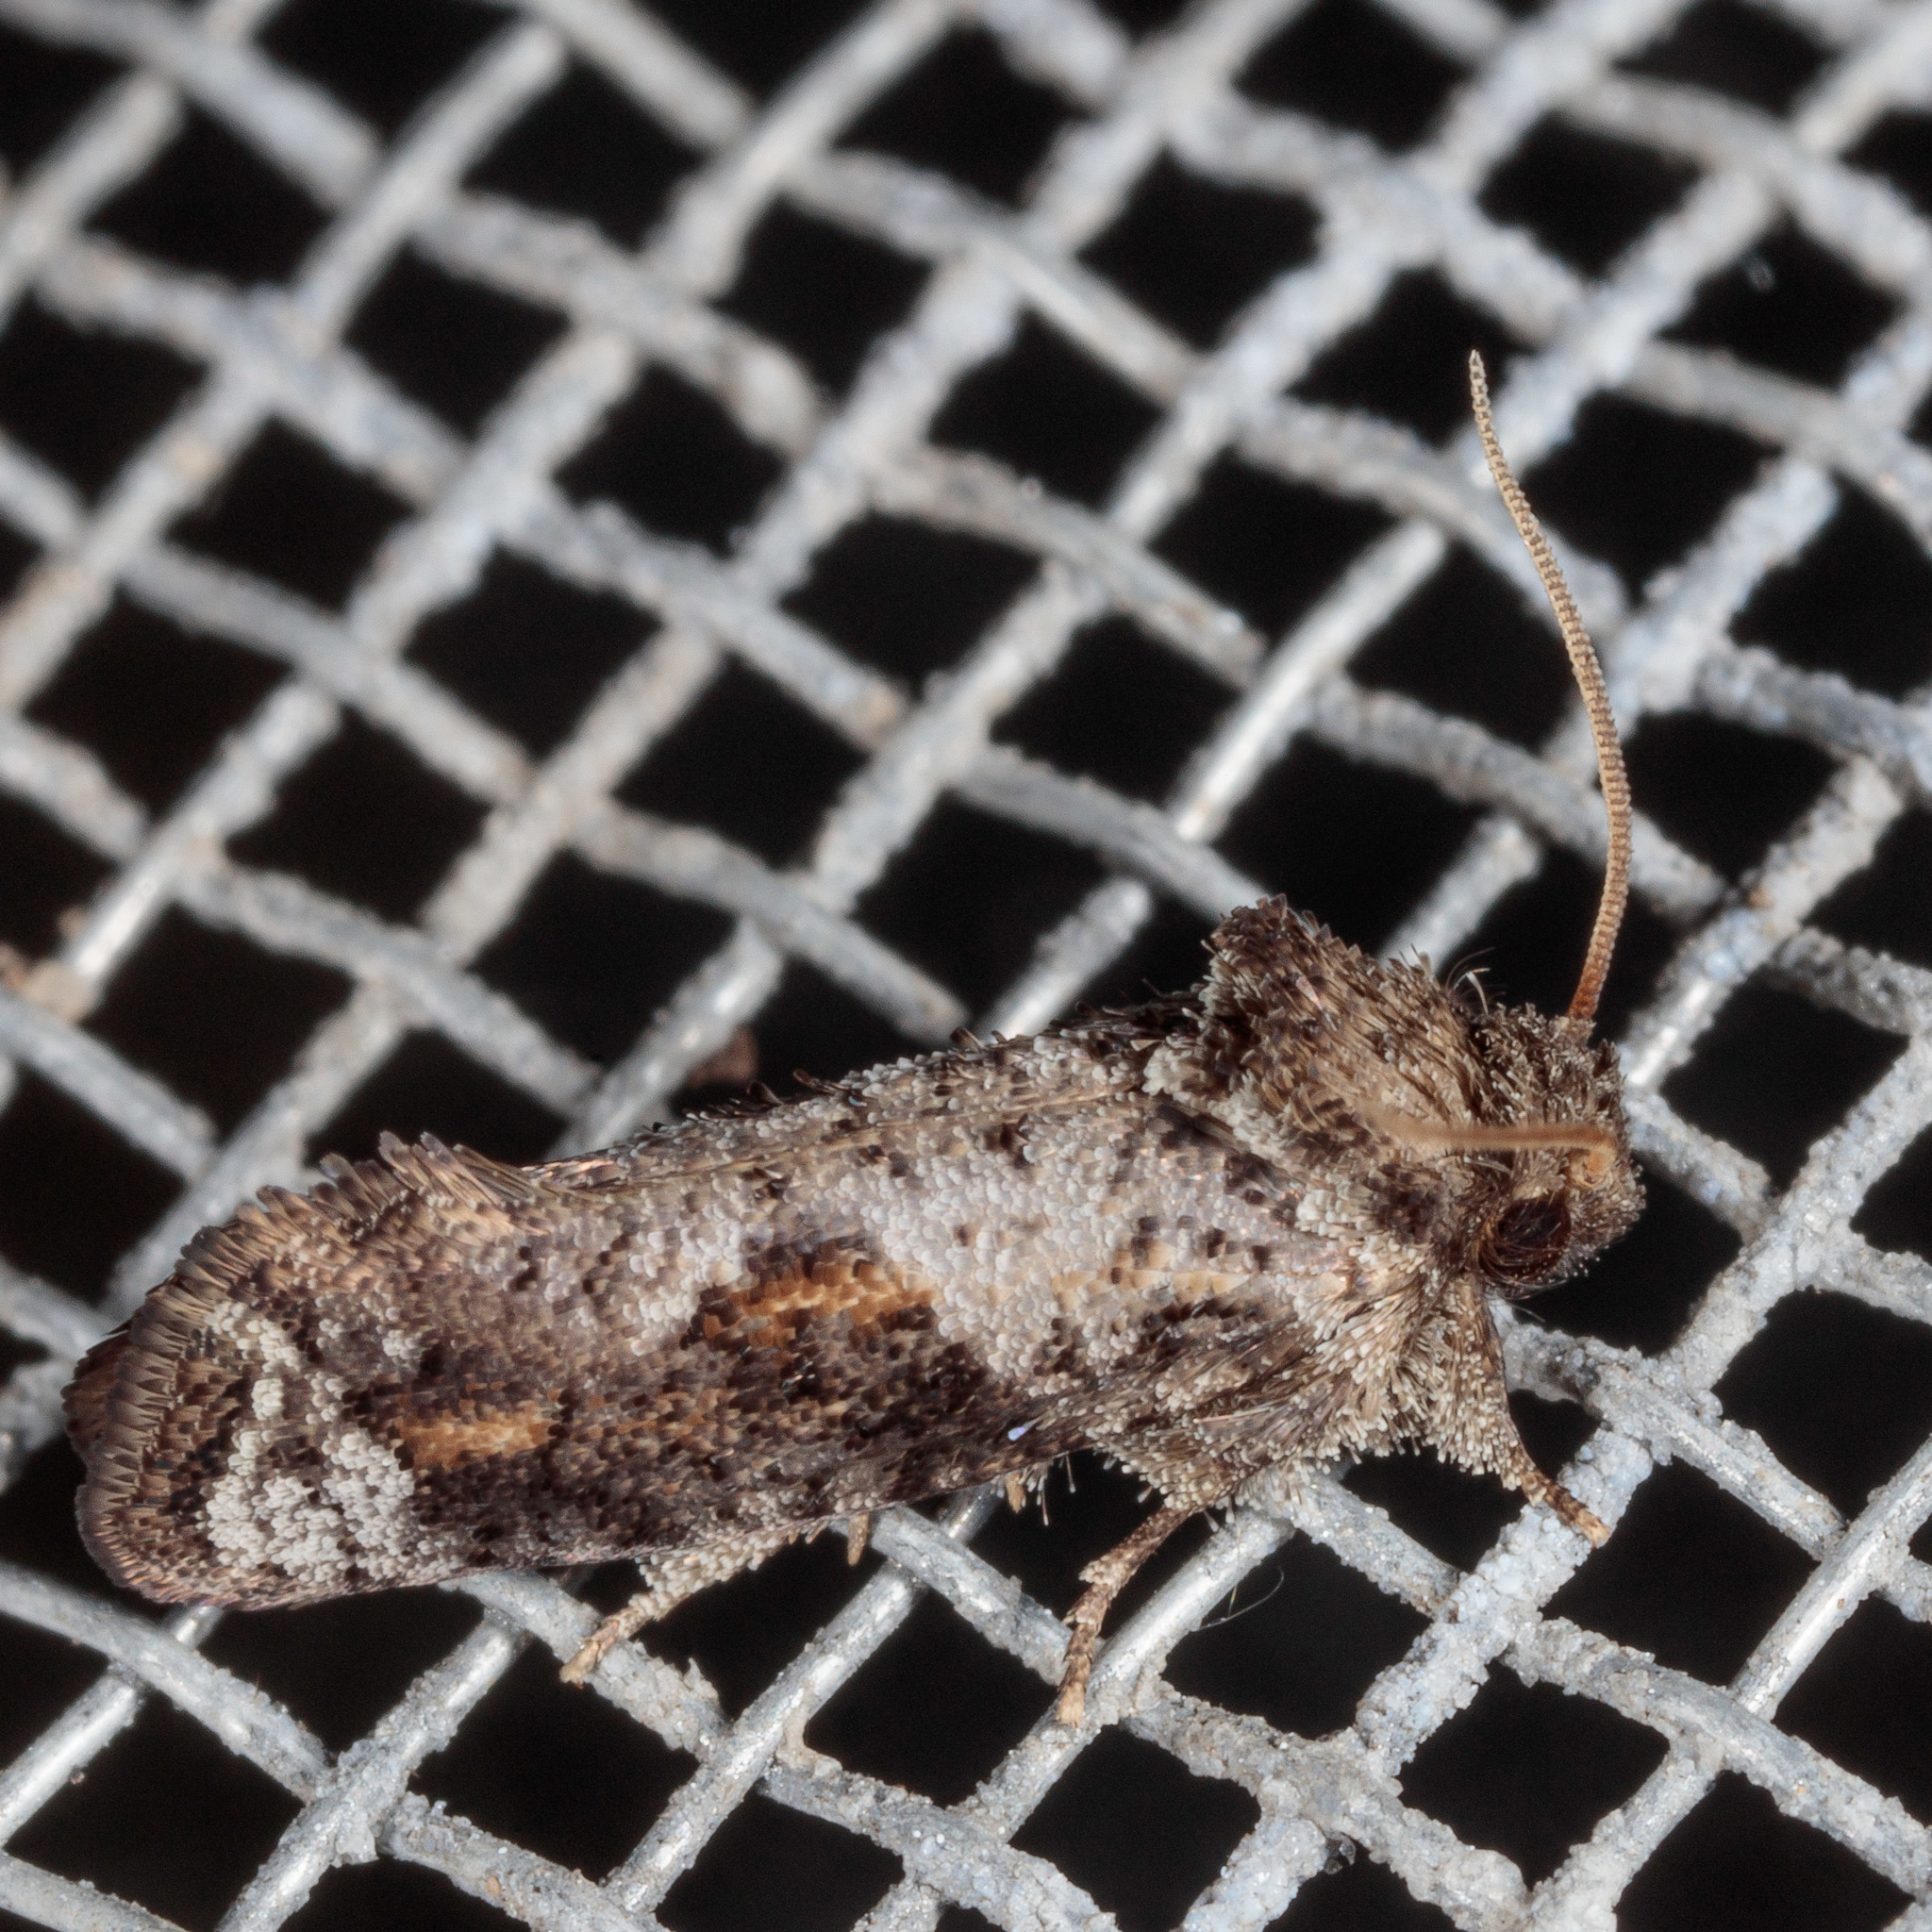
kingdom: Animalia
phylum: Arthropoda
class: Insecta
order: Lepidoptera
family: Tineidae
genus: Acrolophus
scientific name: Acrolophus piger
